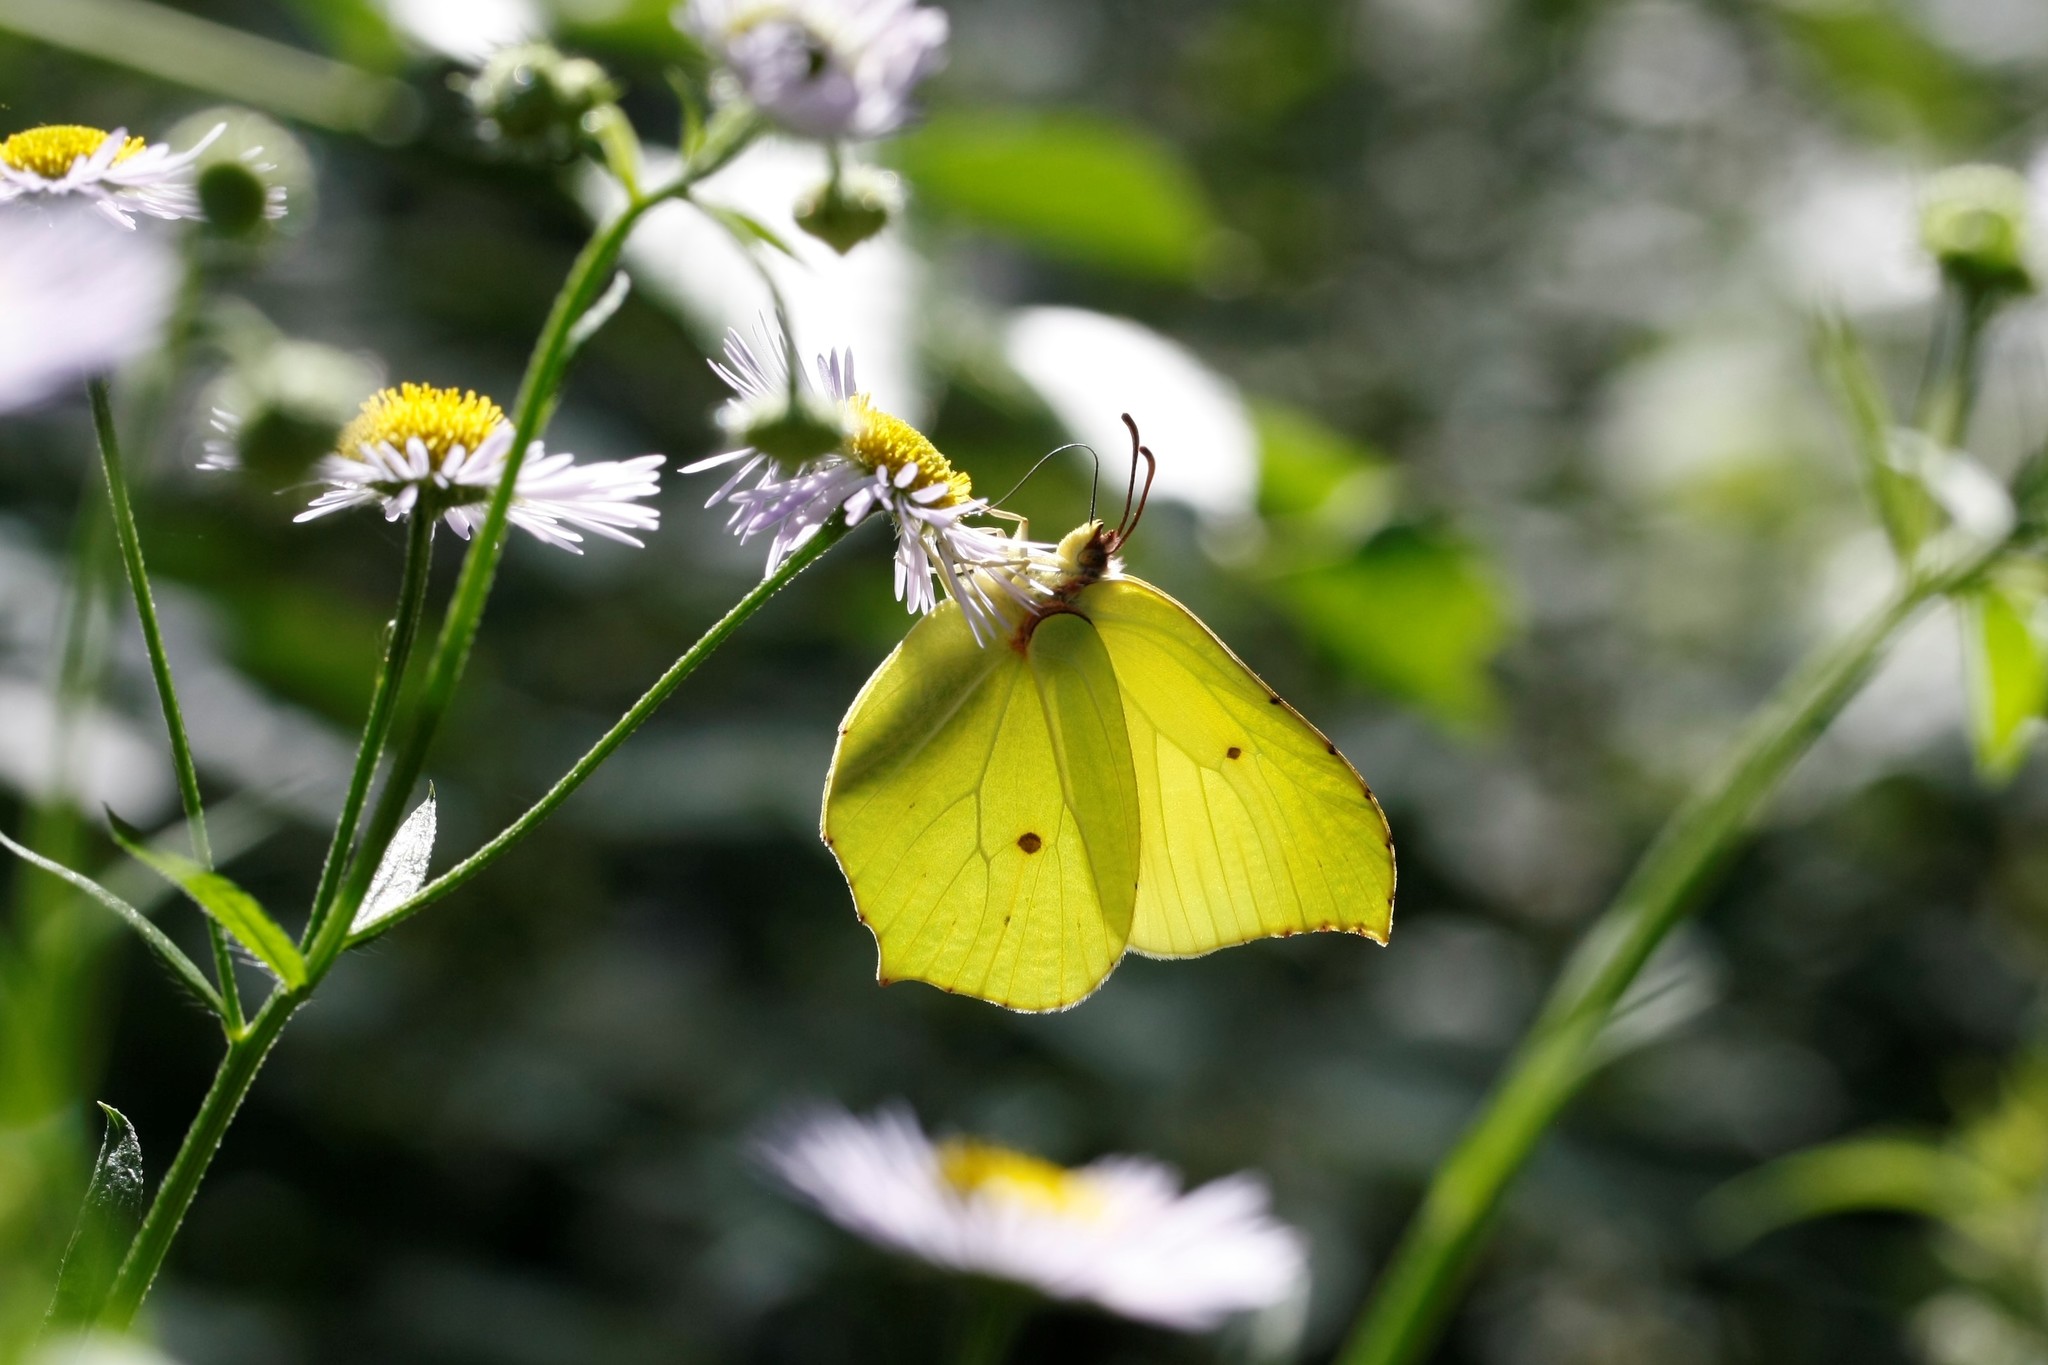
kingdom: Animalia
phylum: Arthropoda
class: Insecta
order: Lepidoptera
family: Pieridae
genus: Gonepteryx
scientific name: Gonepteryx rhamni
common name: Brimstone
